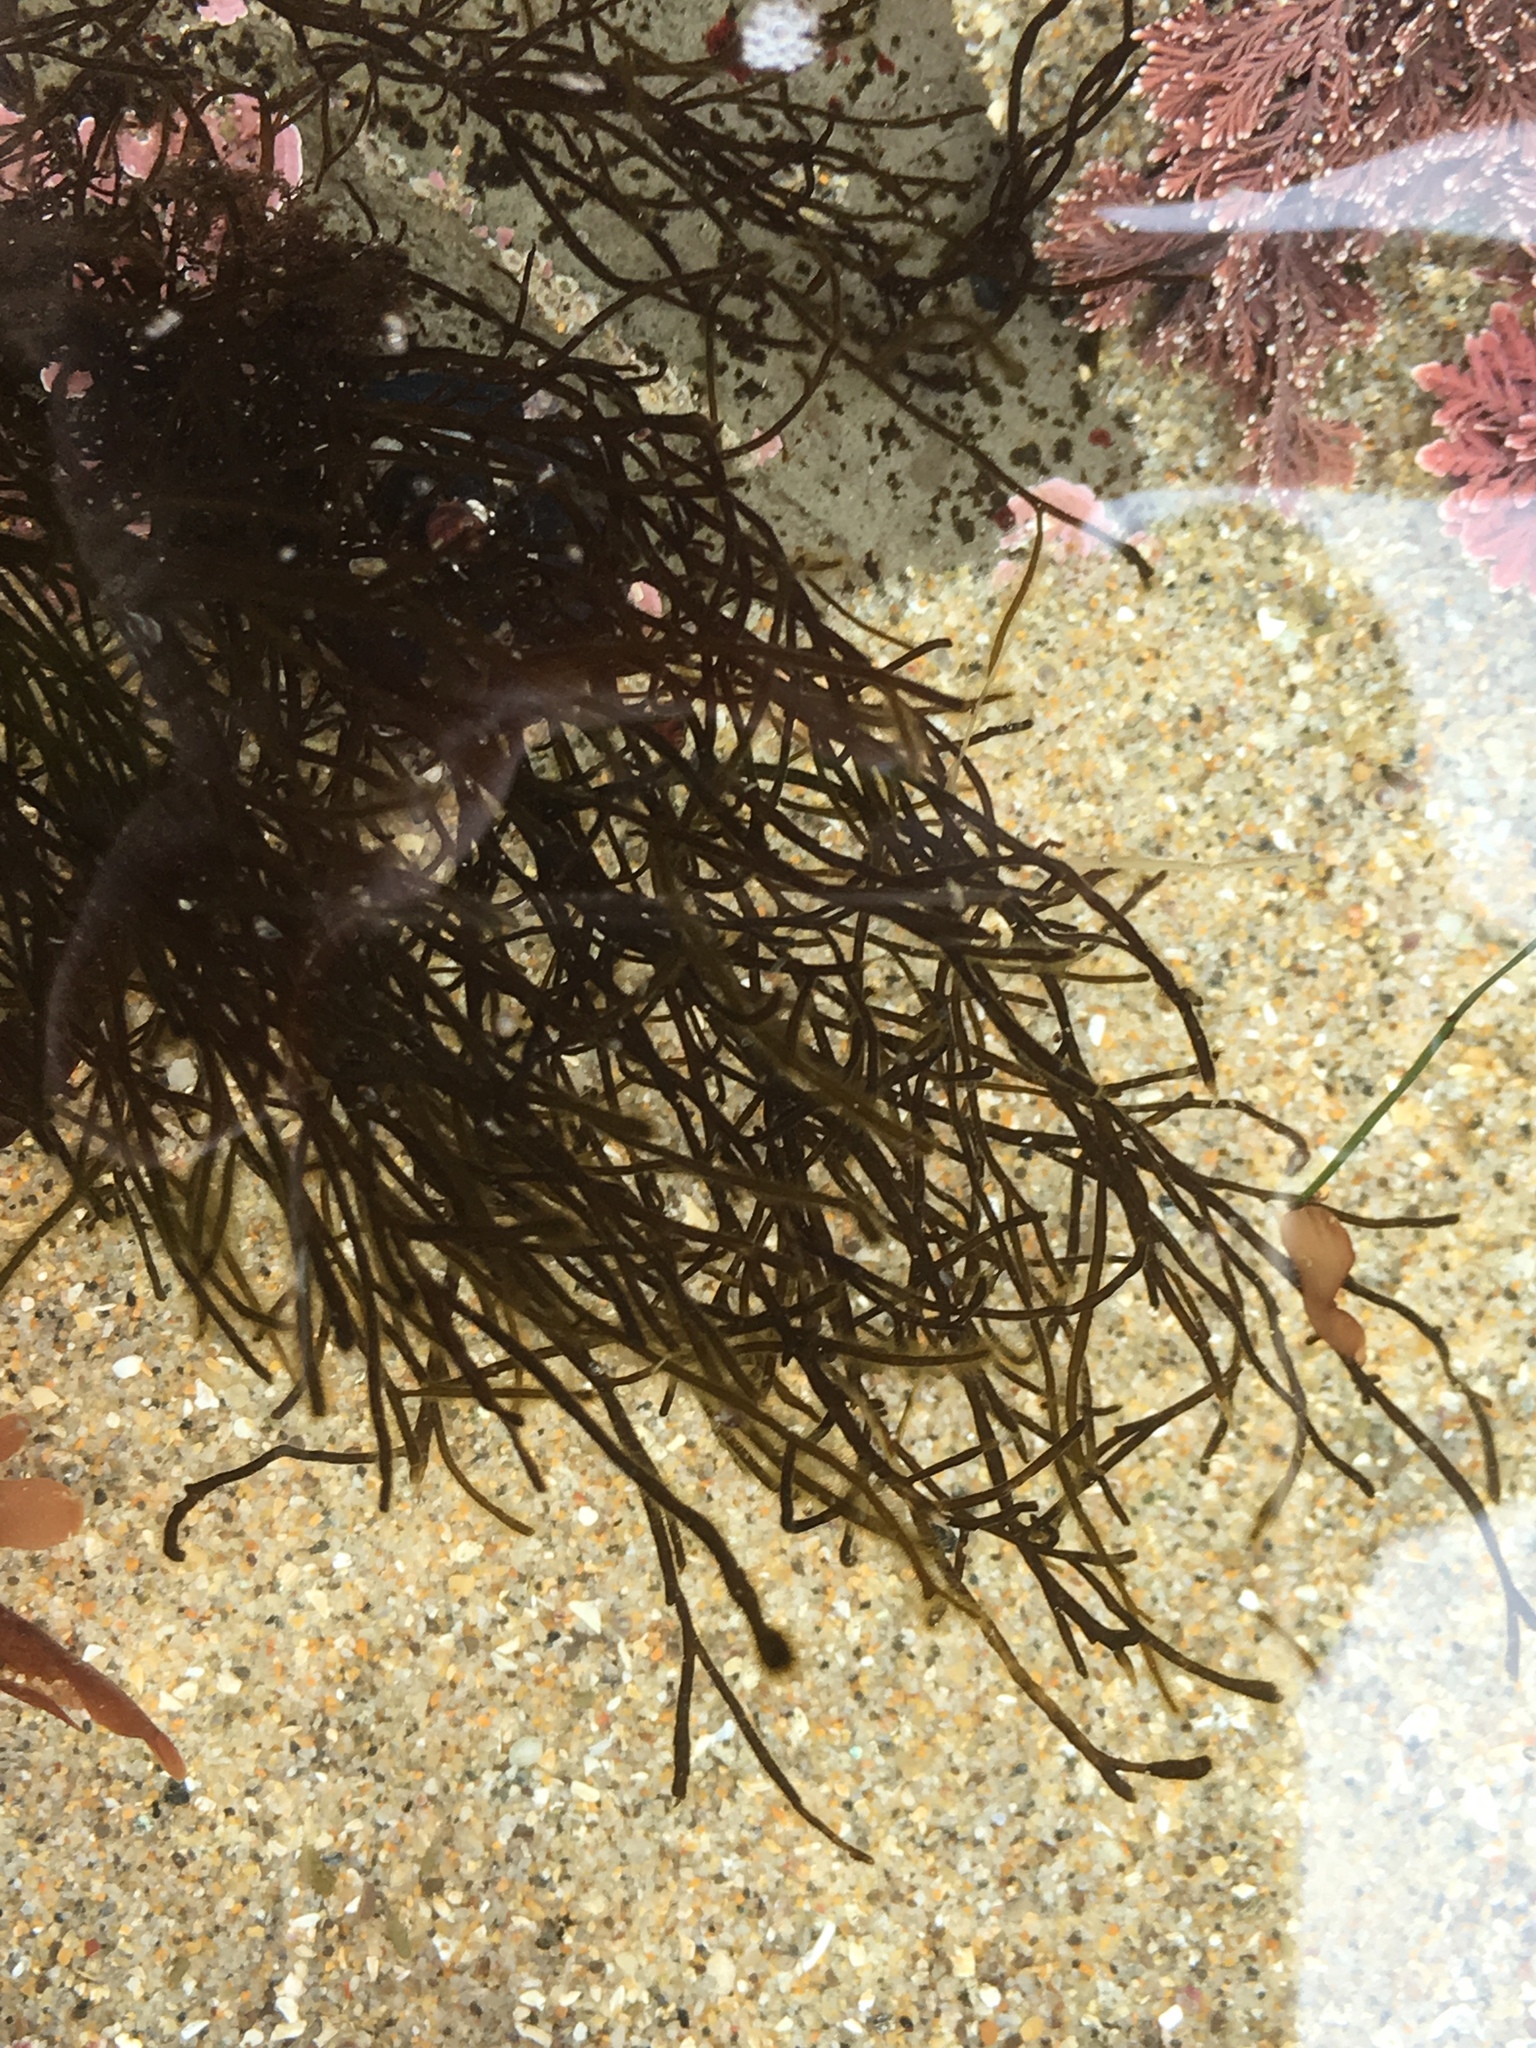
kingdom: Chromista
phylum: Ochrophyta
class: Phaeophyceae
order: Ectocarpales
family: Chordariaceae
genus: Haplogloia
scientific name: Haplogloia andersonii
